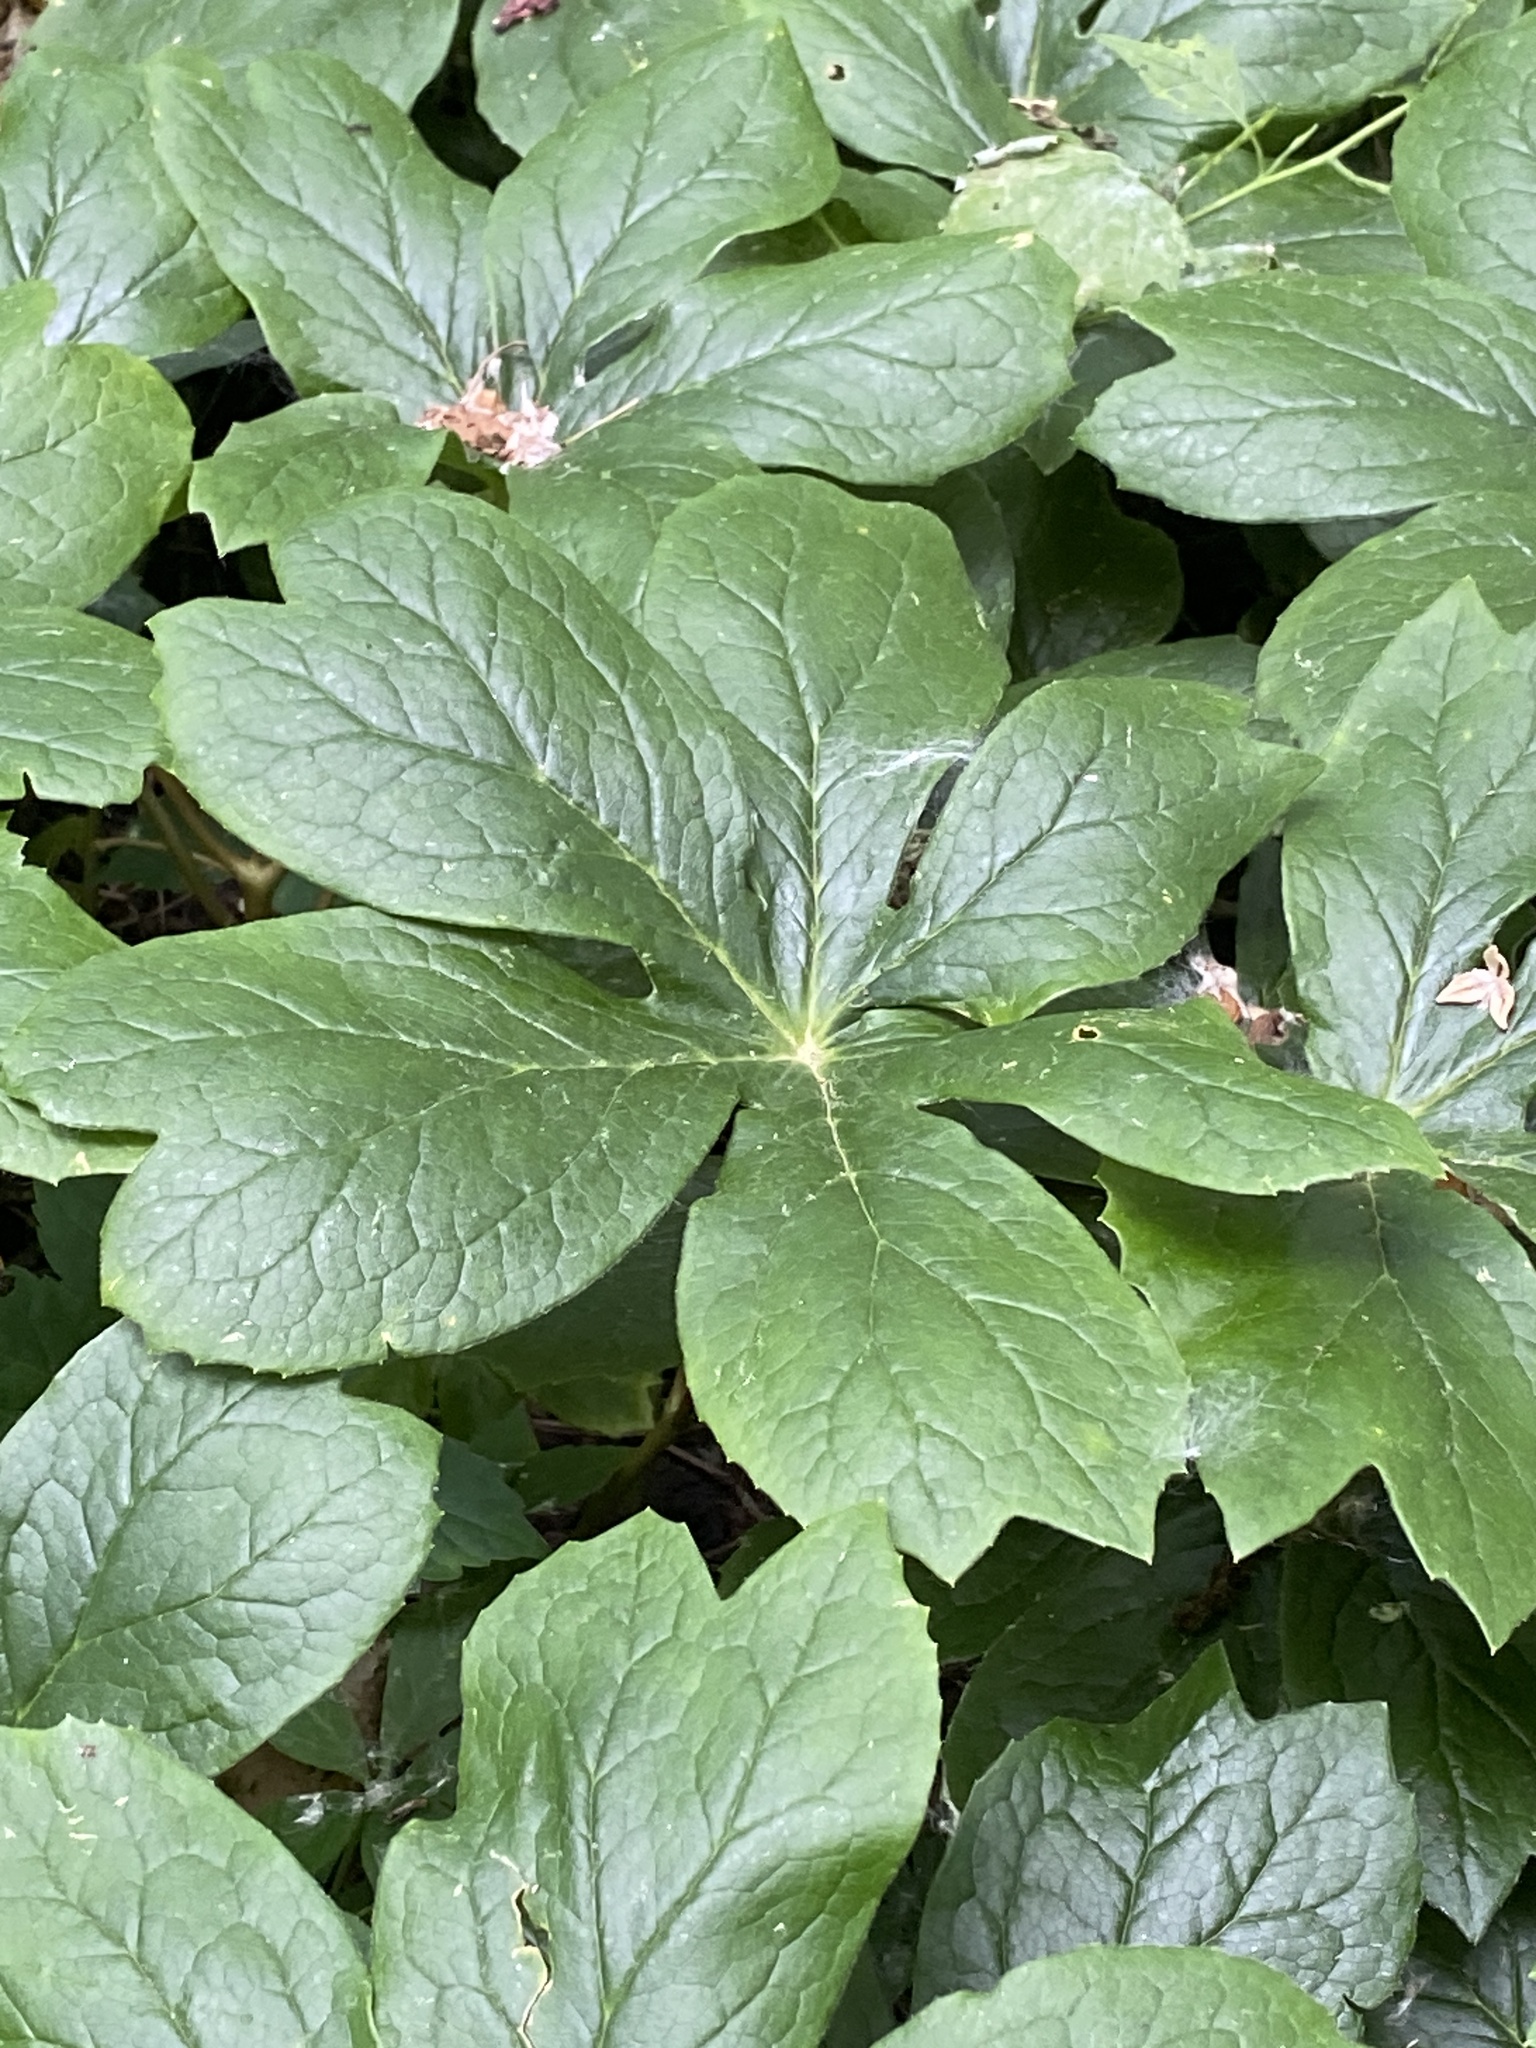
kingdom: Plantae
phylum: Tracheophyta
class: Magnoliopsida
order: Ranunculales
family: Berberidaceae
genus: Podophyllum
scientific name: Podophyllum peltatum
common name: Wild mandrake
